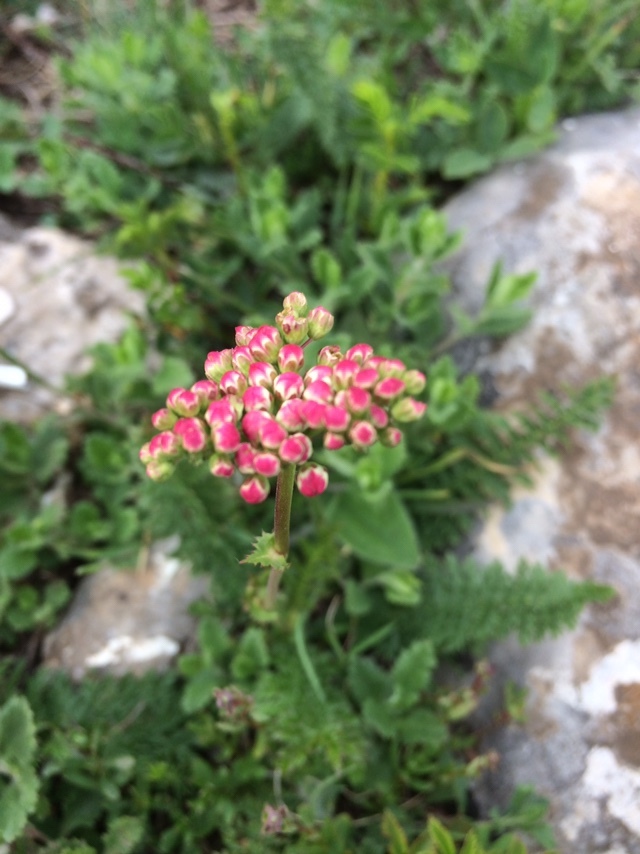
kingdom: Plantae
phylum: Tracheophyta
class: Magnoliopsida
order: Rosales
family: Rosaceae
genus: Filipendula
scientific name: Filipendula vulgaris
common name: Dropwort
